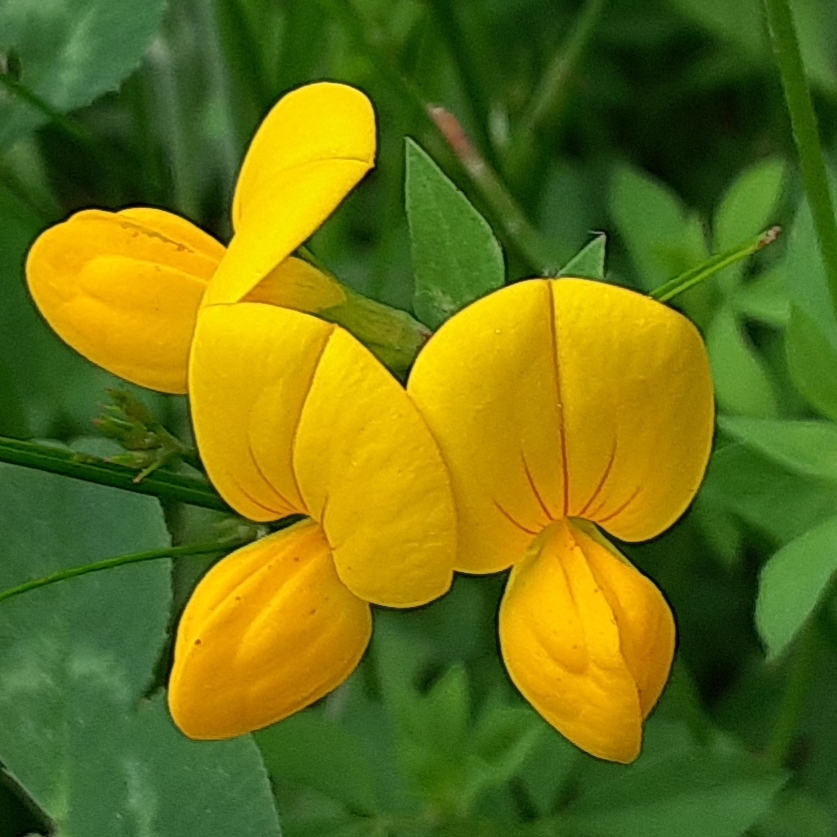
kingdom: Plantae
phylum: Tracheophyta
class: Magnoliopsida
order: Fabales
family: Fabaceae
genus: Lotus
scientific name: Lotus corniculatus
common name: Common bird's-foot-trefoil
